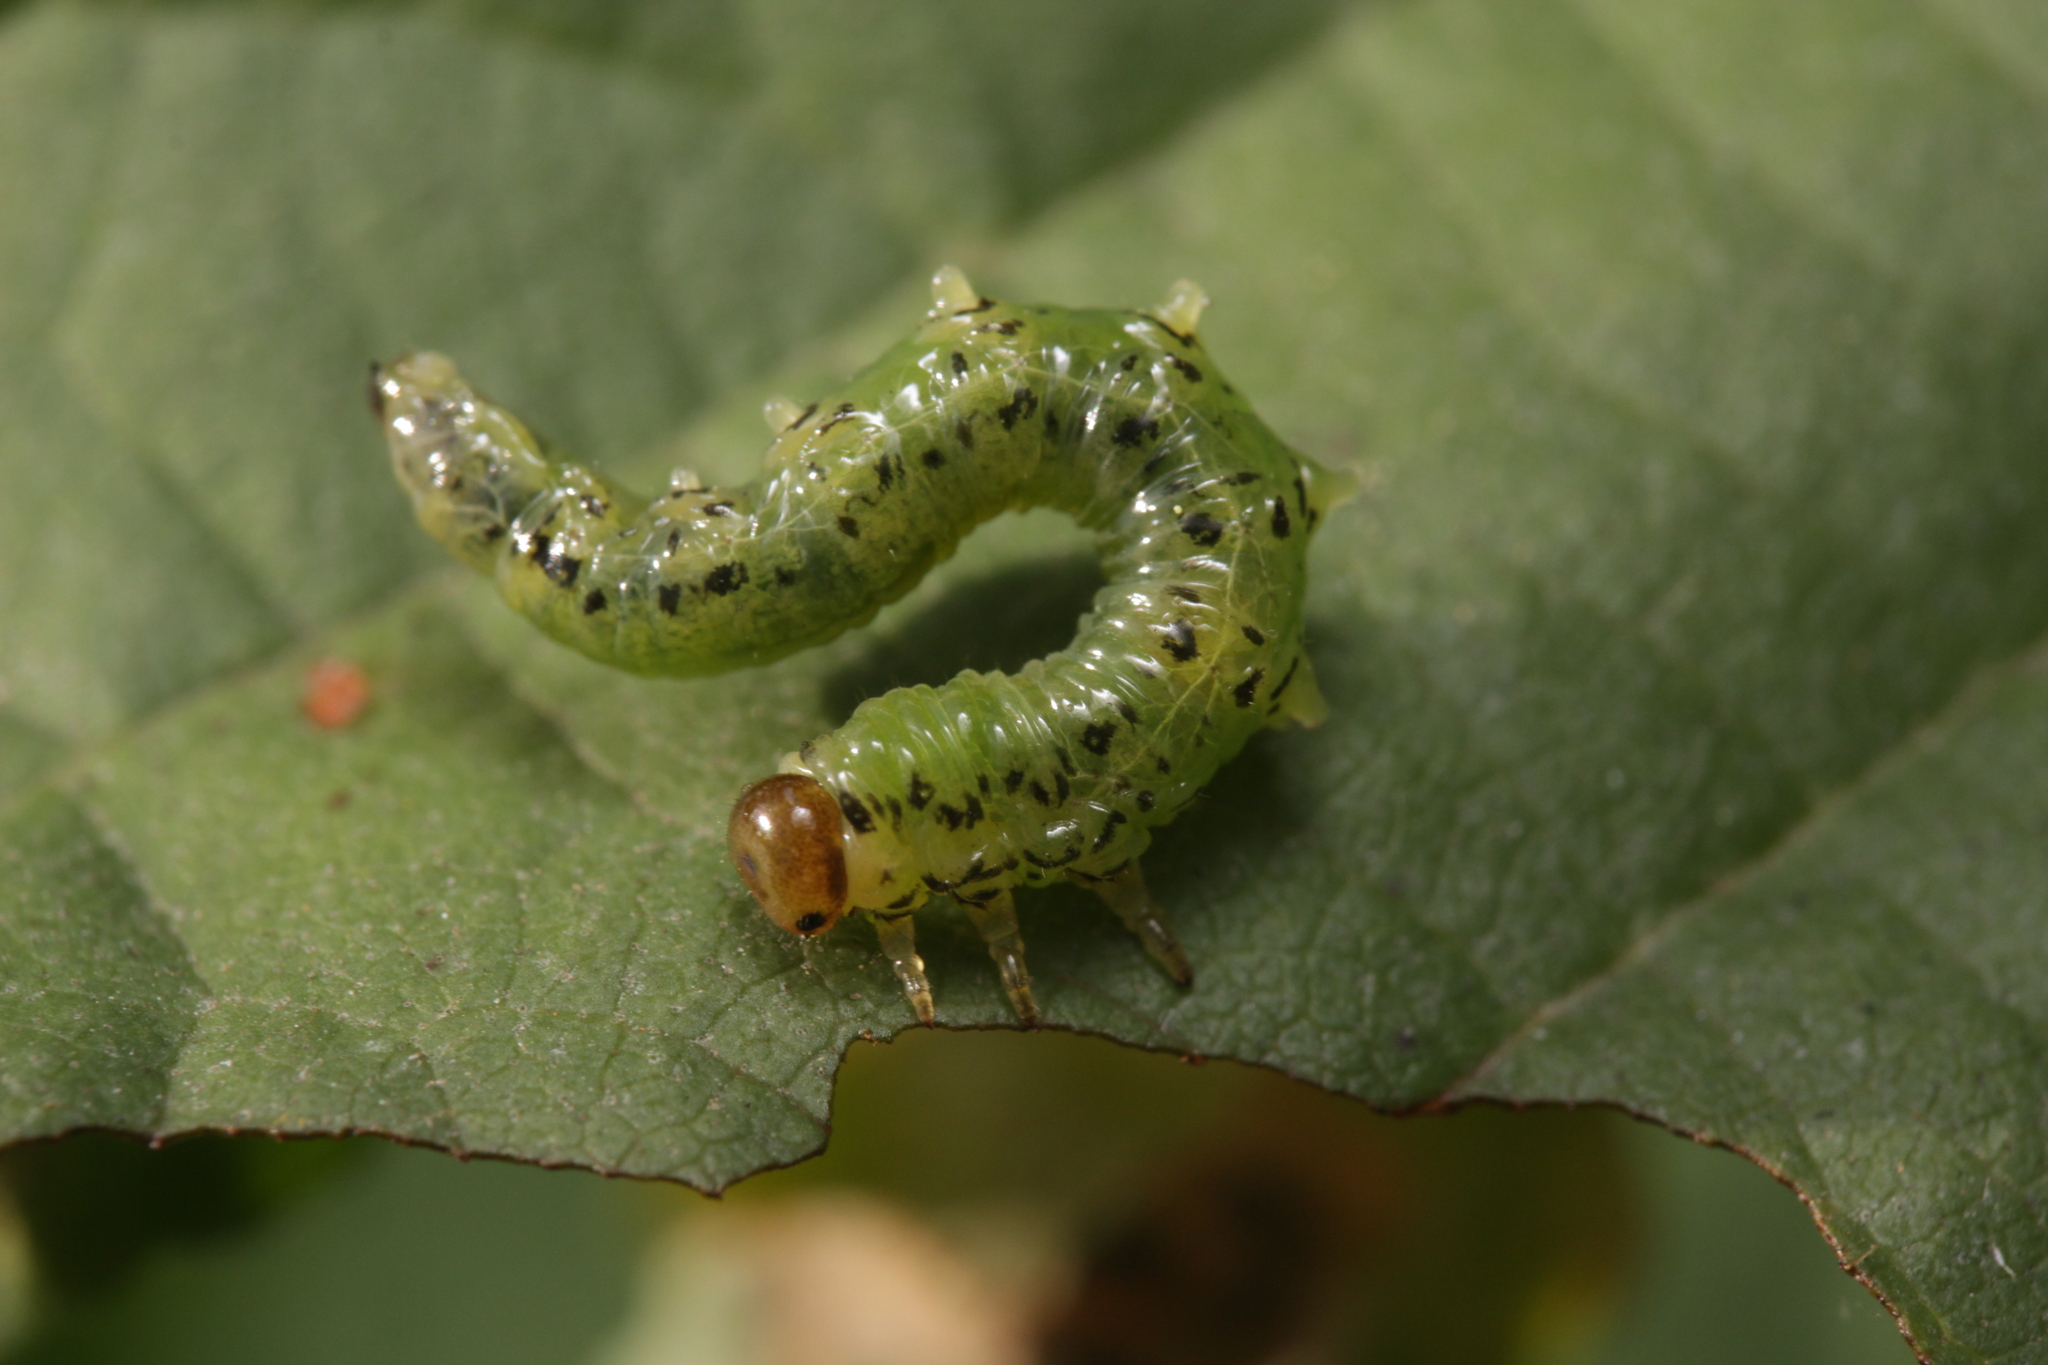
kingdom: Animalia
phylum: Arthropoda
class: Insecta
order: Hymenoptera
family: Tenthredinidae
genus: Craesus
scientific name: Craesus alniastri
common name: Sawfly
